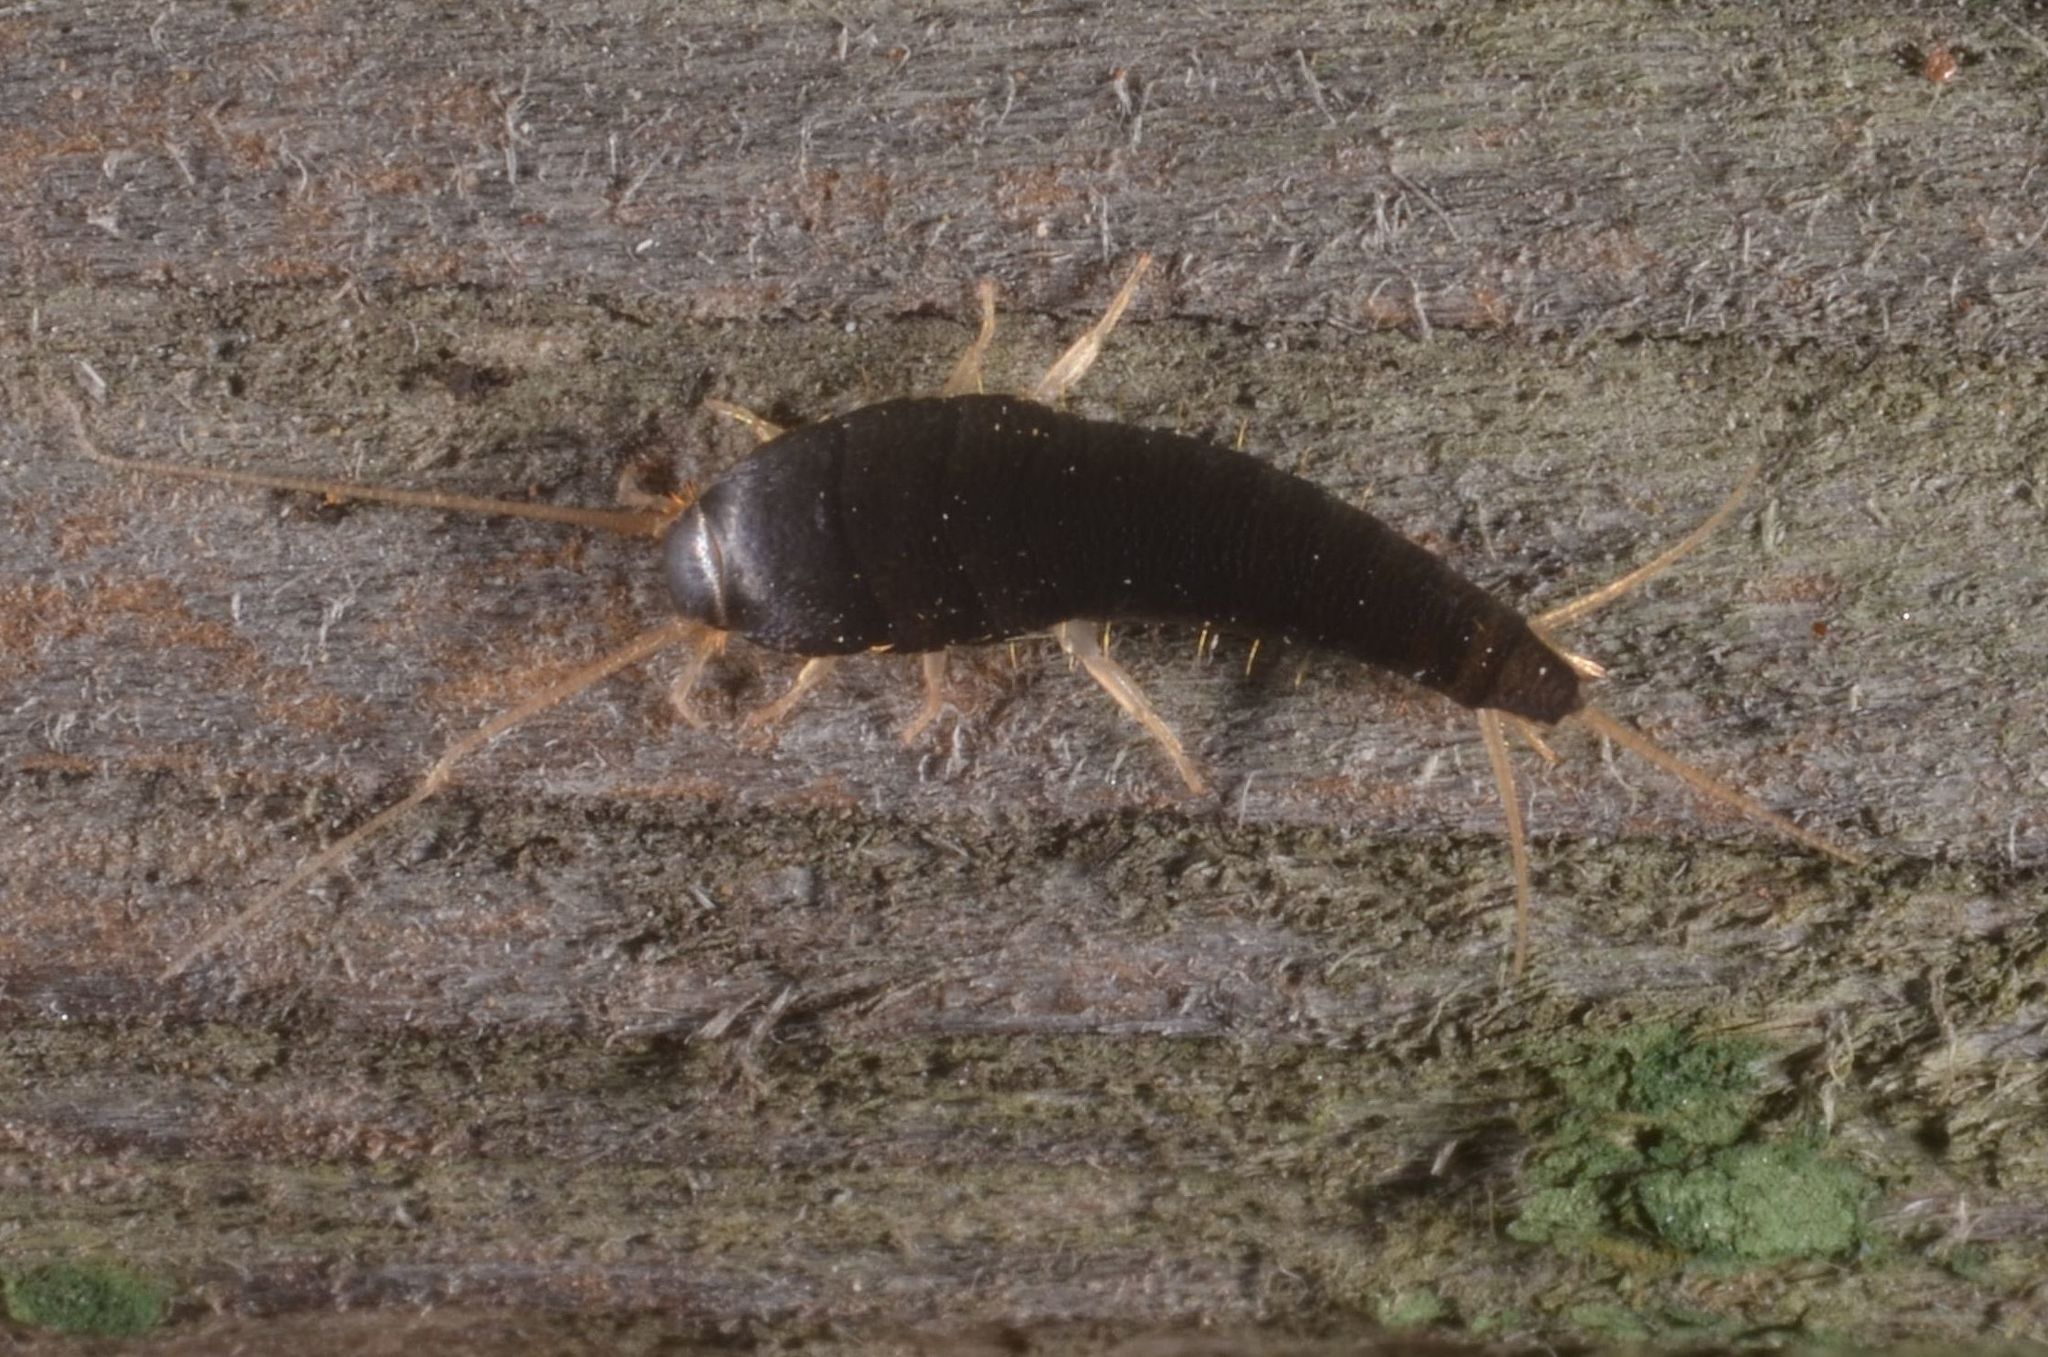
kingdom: Animalia
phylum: Arthropoda
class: Insecta
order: Zygentoma
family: Lepismatidae
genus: Lepisma
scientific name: Lepisma saccharinum
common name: Silverfish
